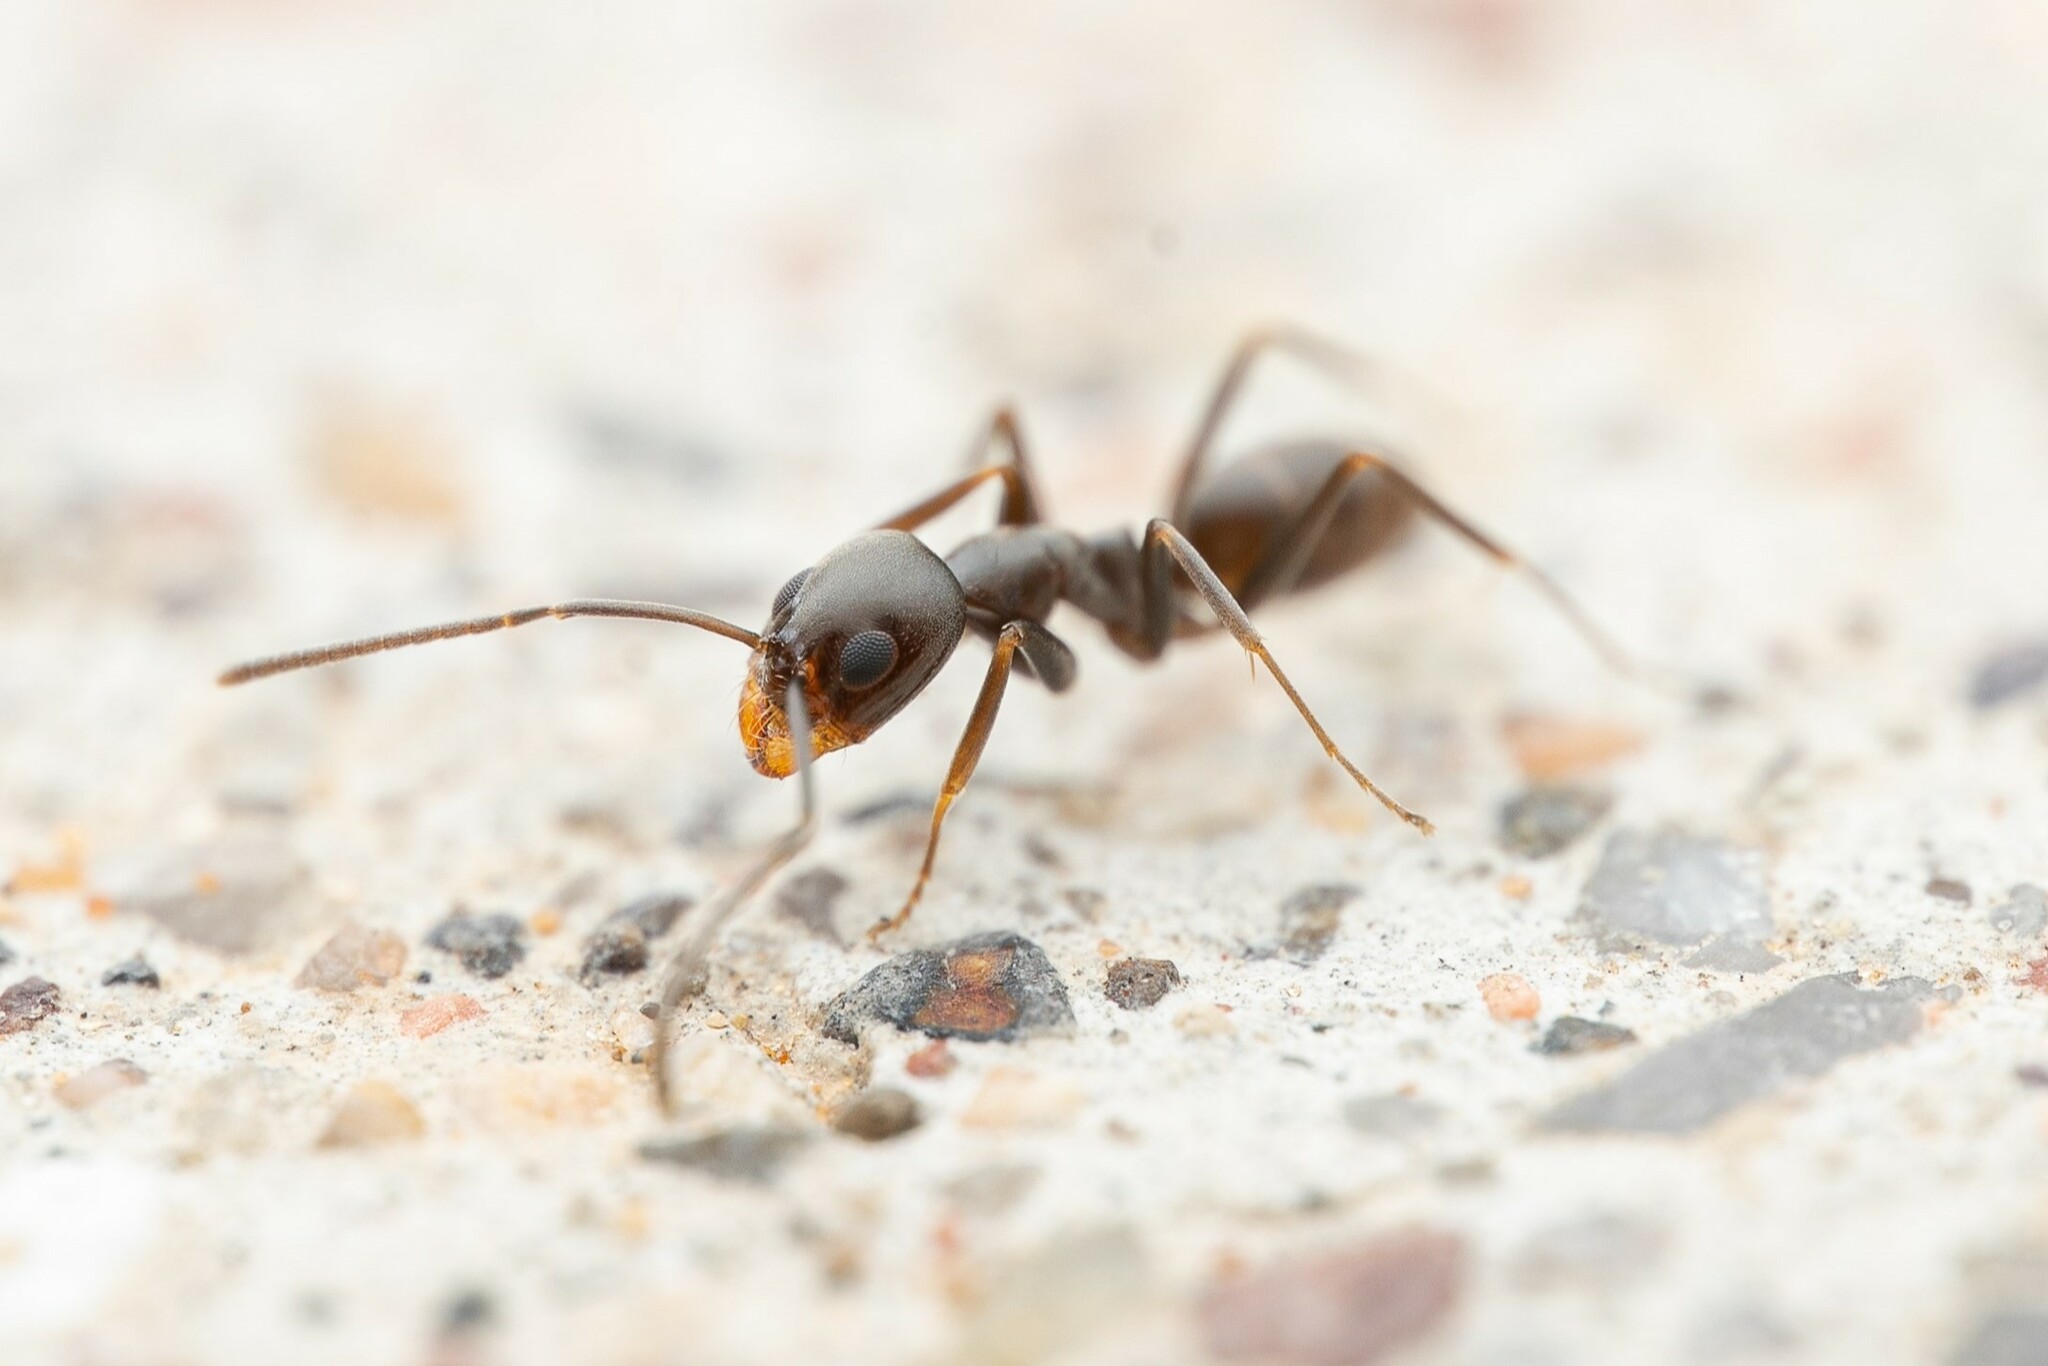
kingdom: Animalia
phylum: Arthropoda
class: Insecta
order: Hymenoptera
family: Formicidae
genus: Dorymyrmex
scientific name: Dorymyrmex insanus
